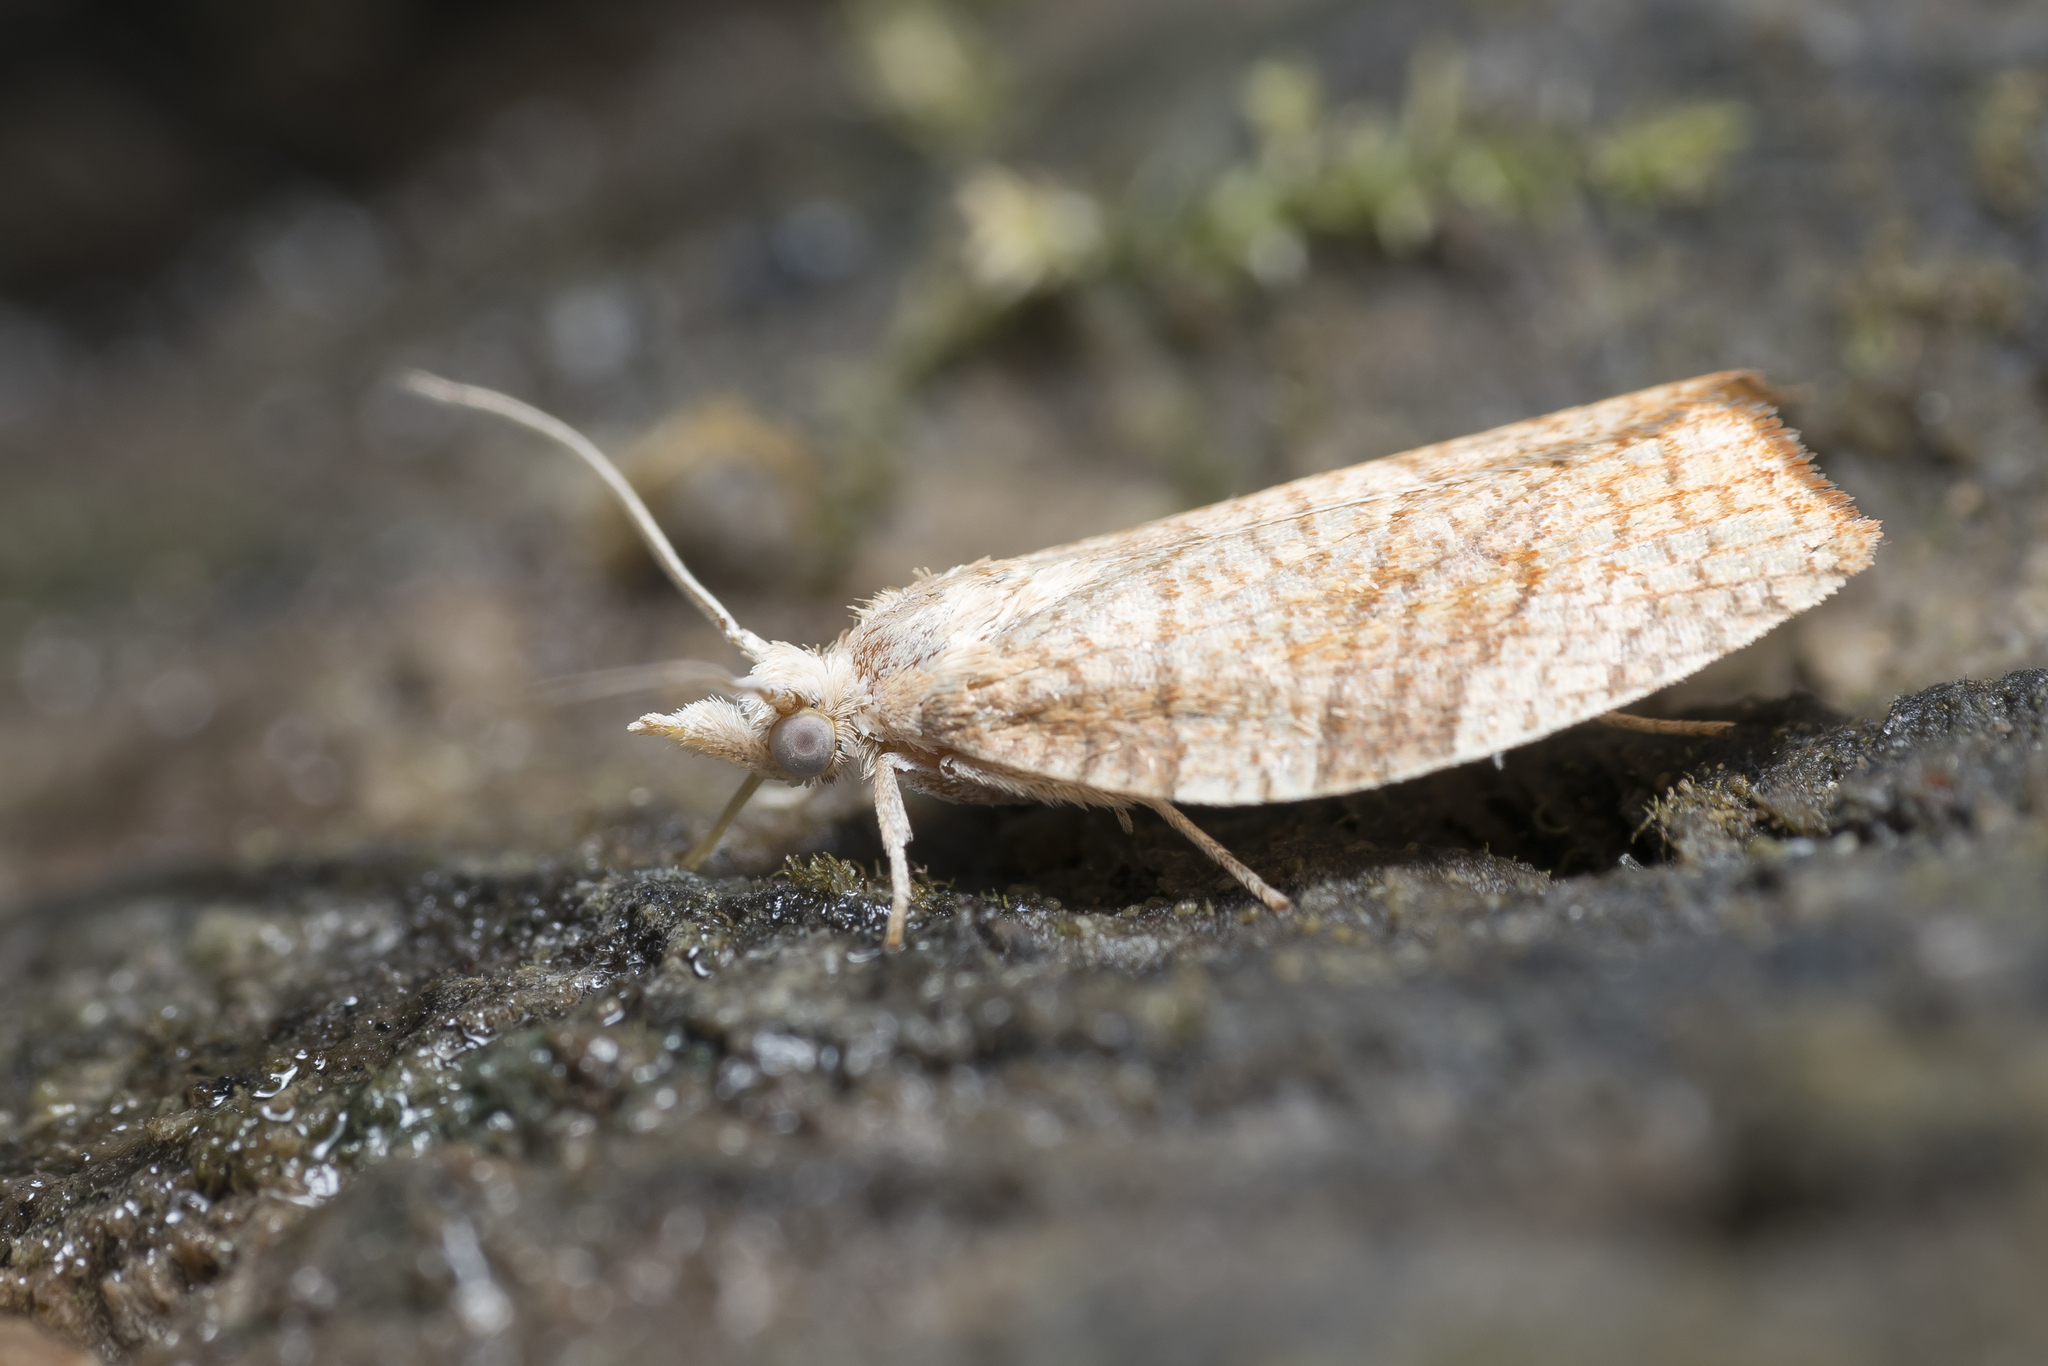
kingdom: Animalia
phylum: Arthropoda
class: Insecta
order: Lepidoptera
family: Tortricidae
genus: Pandemis
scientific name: Pandemis corylana
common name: Chequered fruit-tree tortrix
